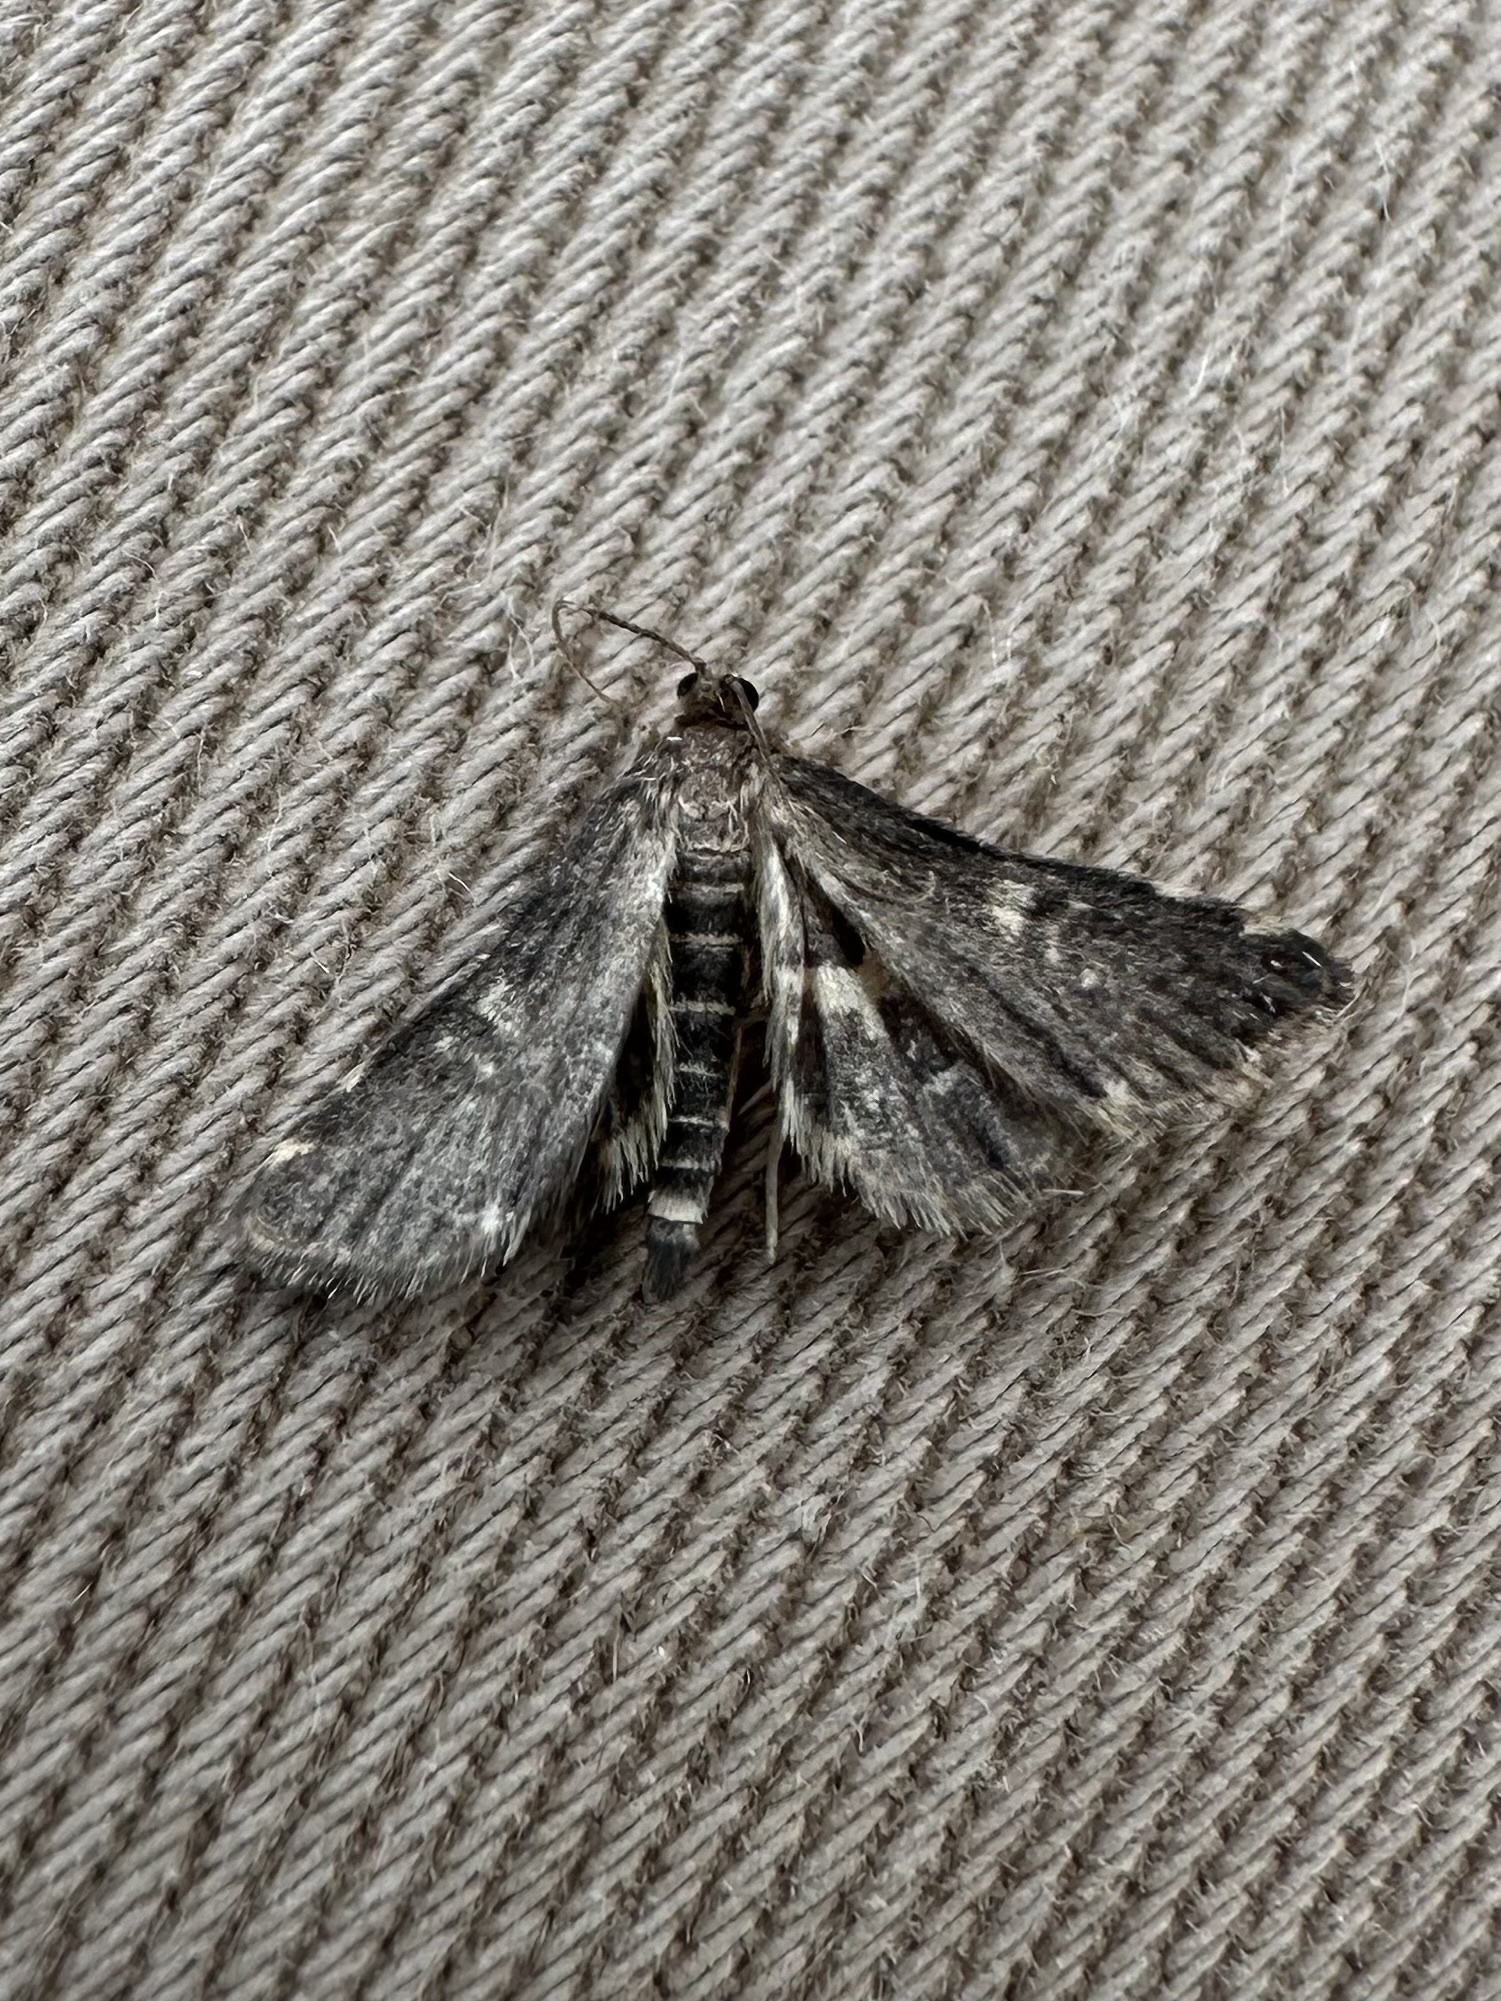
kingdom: Animalia
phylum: Arthropoda
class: Insecta
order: Lepidoptera
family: Crambidae
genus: Elophila
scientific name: Elophila tinealis
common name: Black duckweed moth
